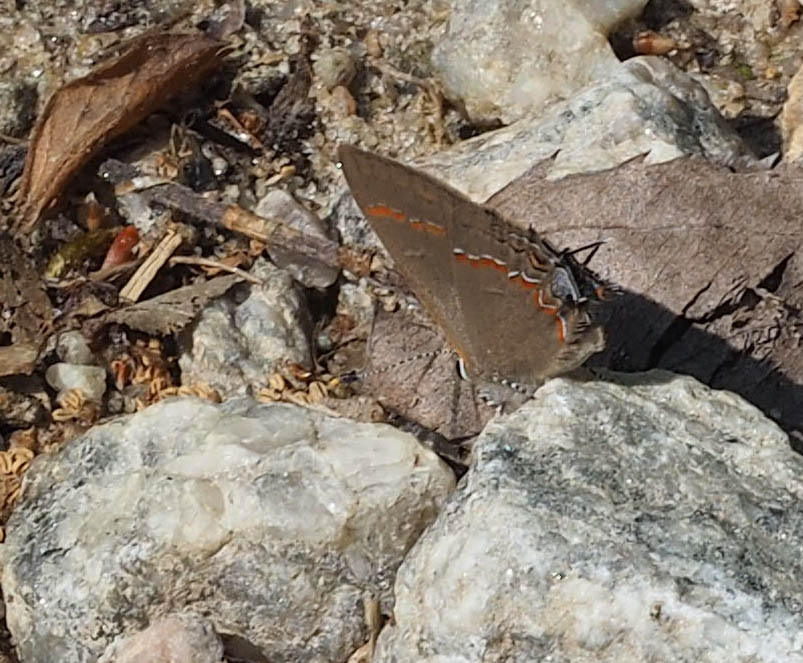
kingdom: Animalia
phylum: Arthropoda
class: Insecta
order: Lepidoptera
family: Lycaenidae
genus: Calycopis
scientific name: Calycopis cecrops
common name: Red-banded hairstreak
